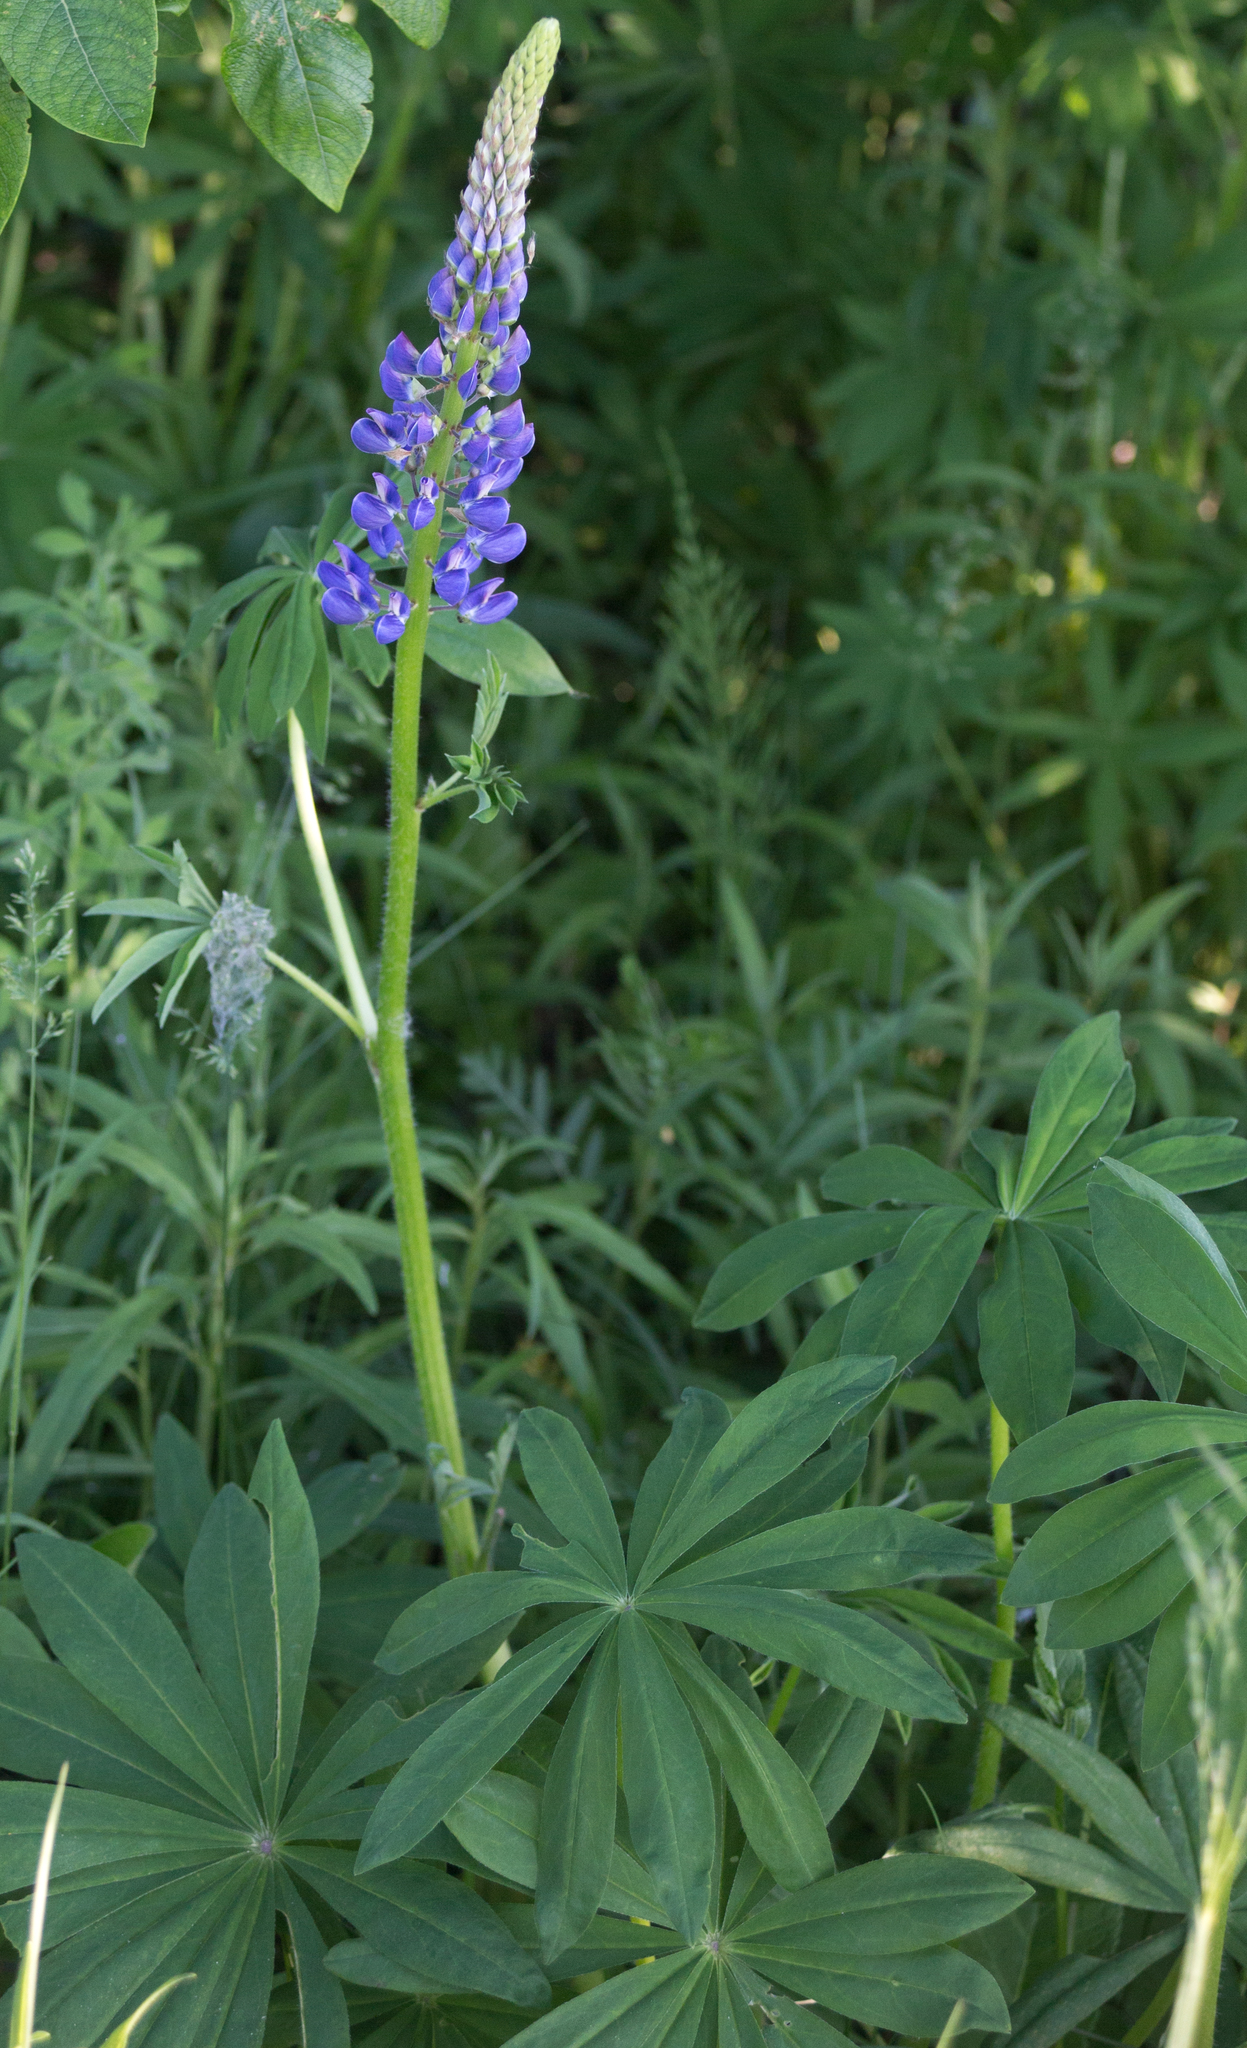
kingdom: Plantae
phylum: Tracheophyta
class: Magnoliopsida
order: Fabales
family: Fabaceae
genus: Lupinus
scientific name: Lupinus polyphyllus
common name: Garden lupin
